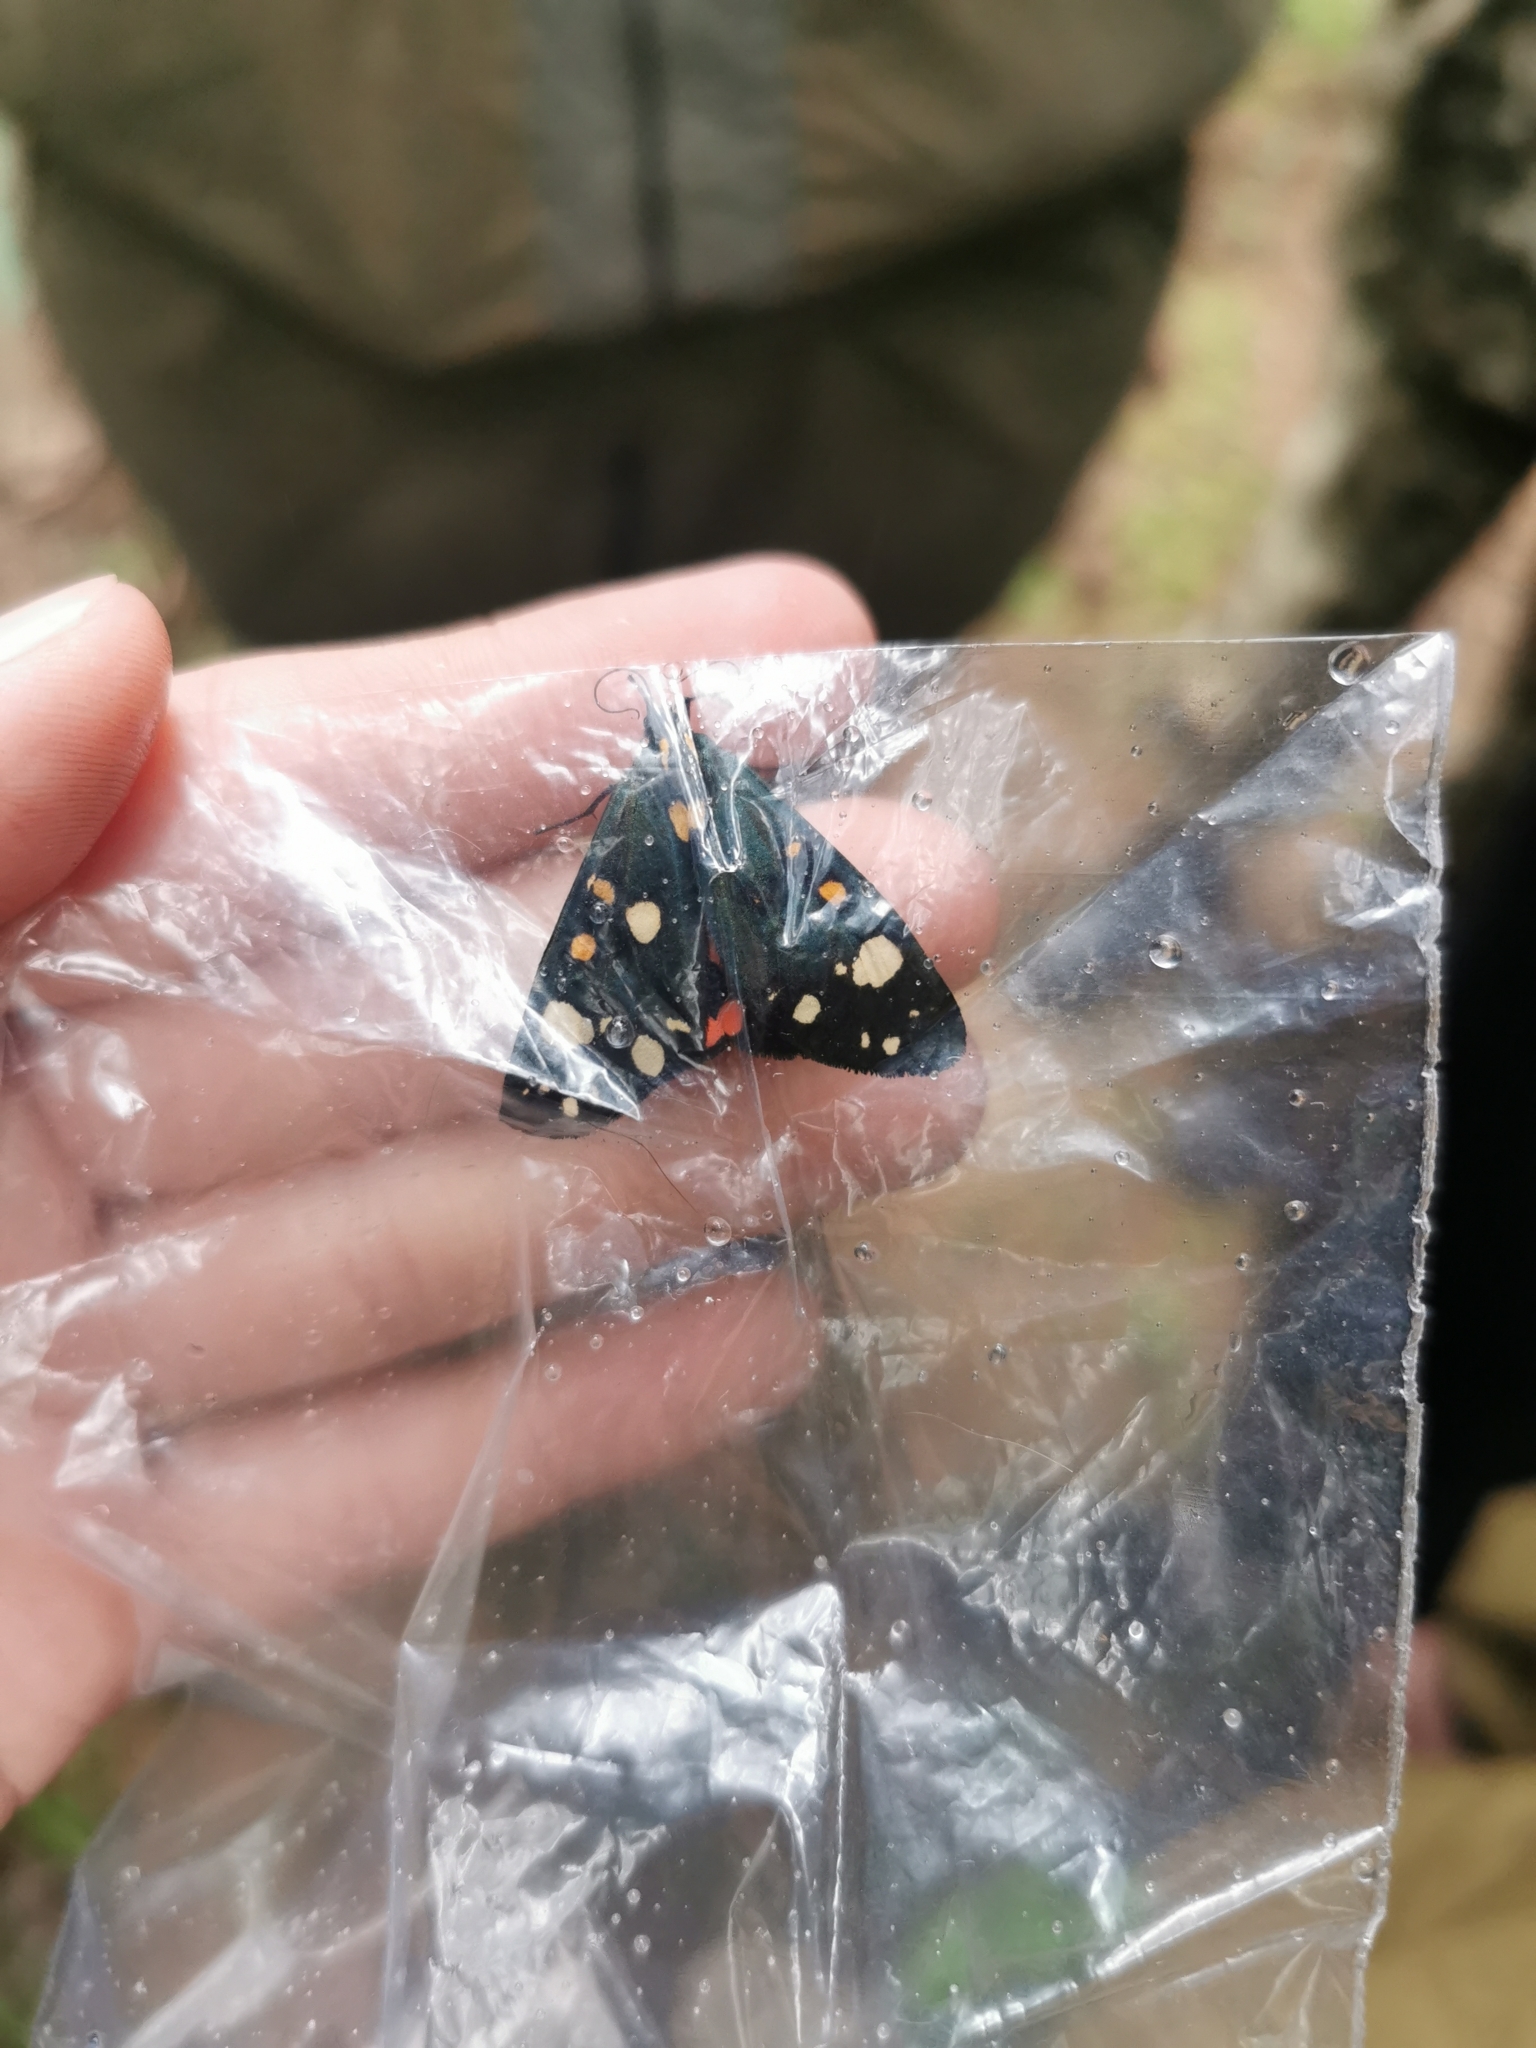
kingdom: Animalia
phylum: Arthropoda
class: Insecta
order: Lepidoptera
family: Erebidae
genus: Callimorpha
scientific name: Callimorpha dominula
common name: Scarlet tiger
